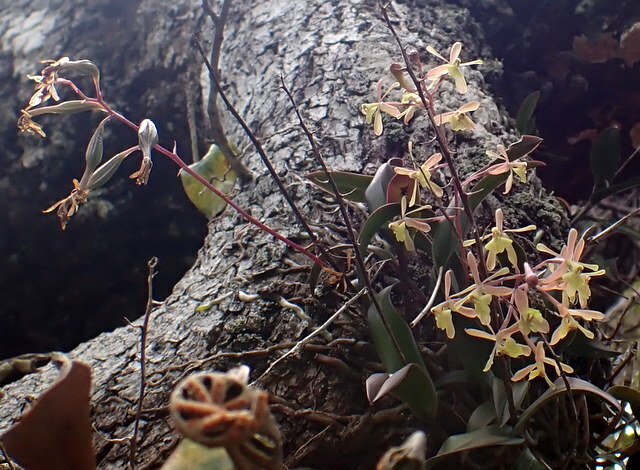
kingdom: Plantae
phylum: Tracheophyta
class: Liliopsida
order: Asparagales
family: Orchidaceae
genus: Epidendrum
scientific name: Epidendrum conopseum
